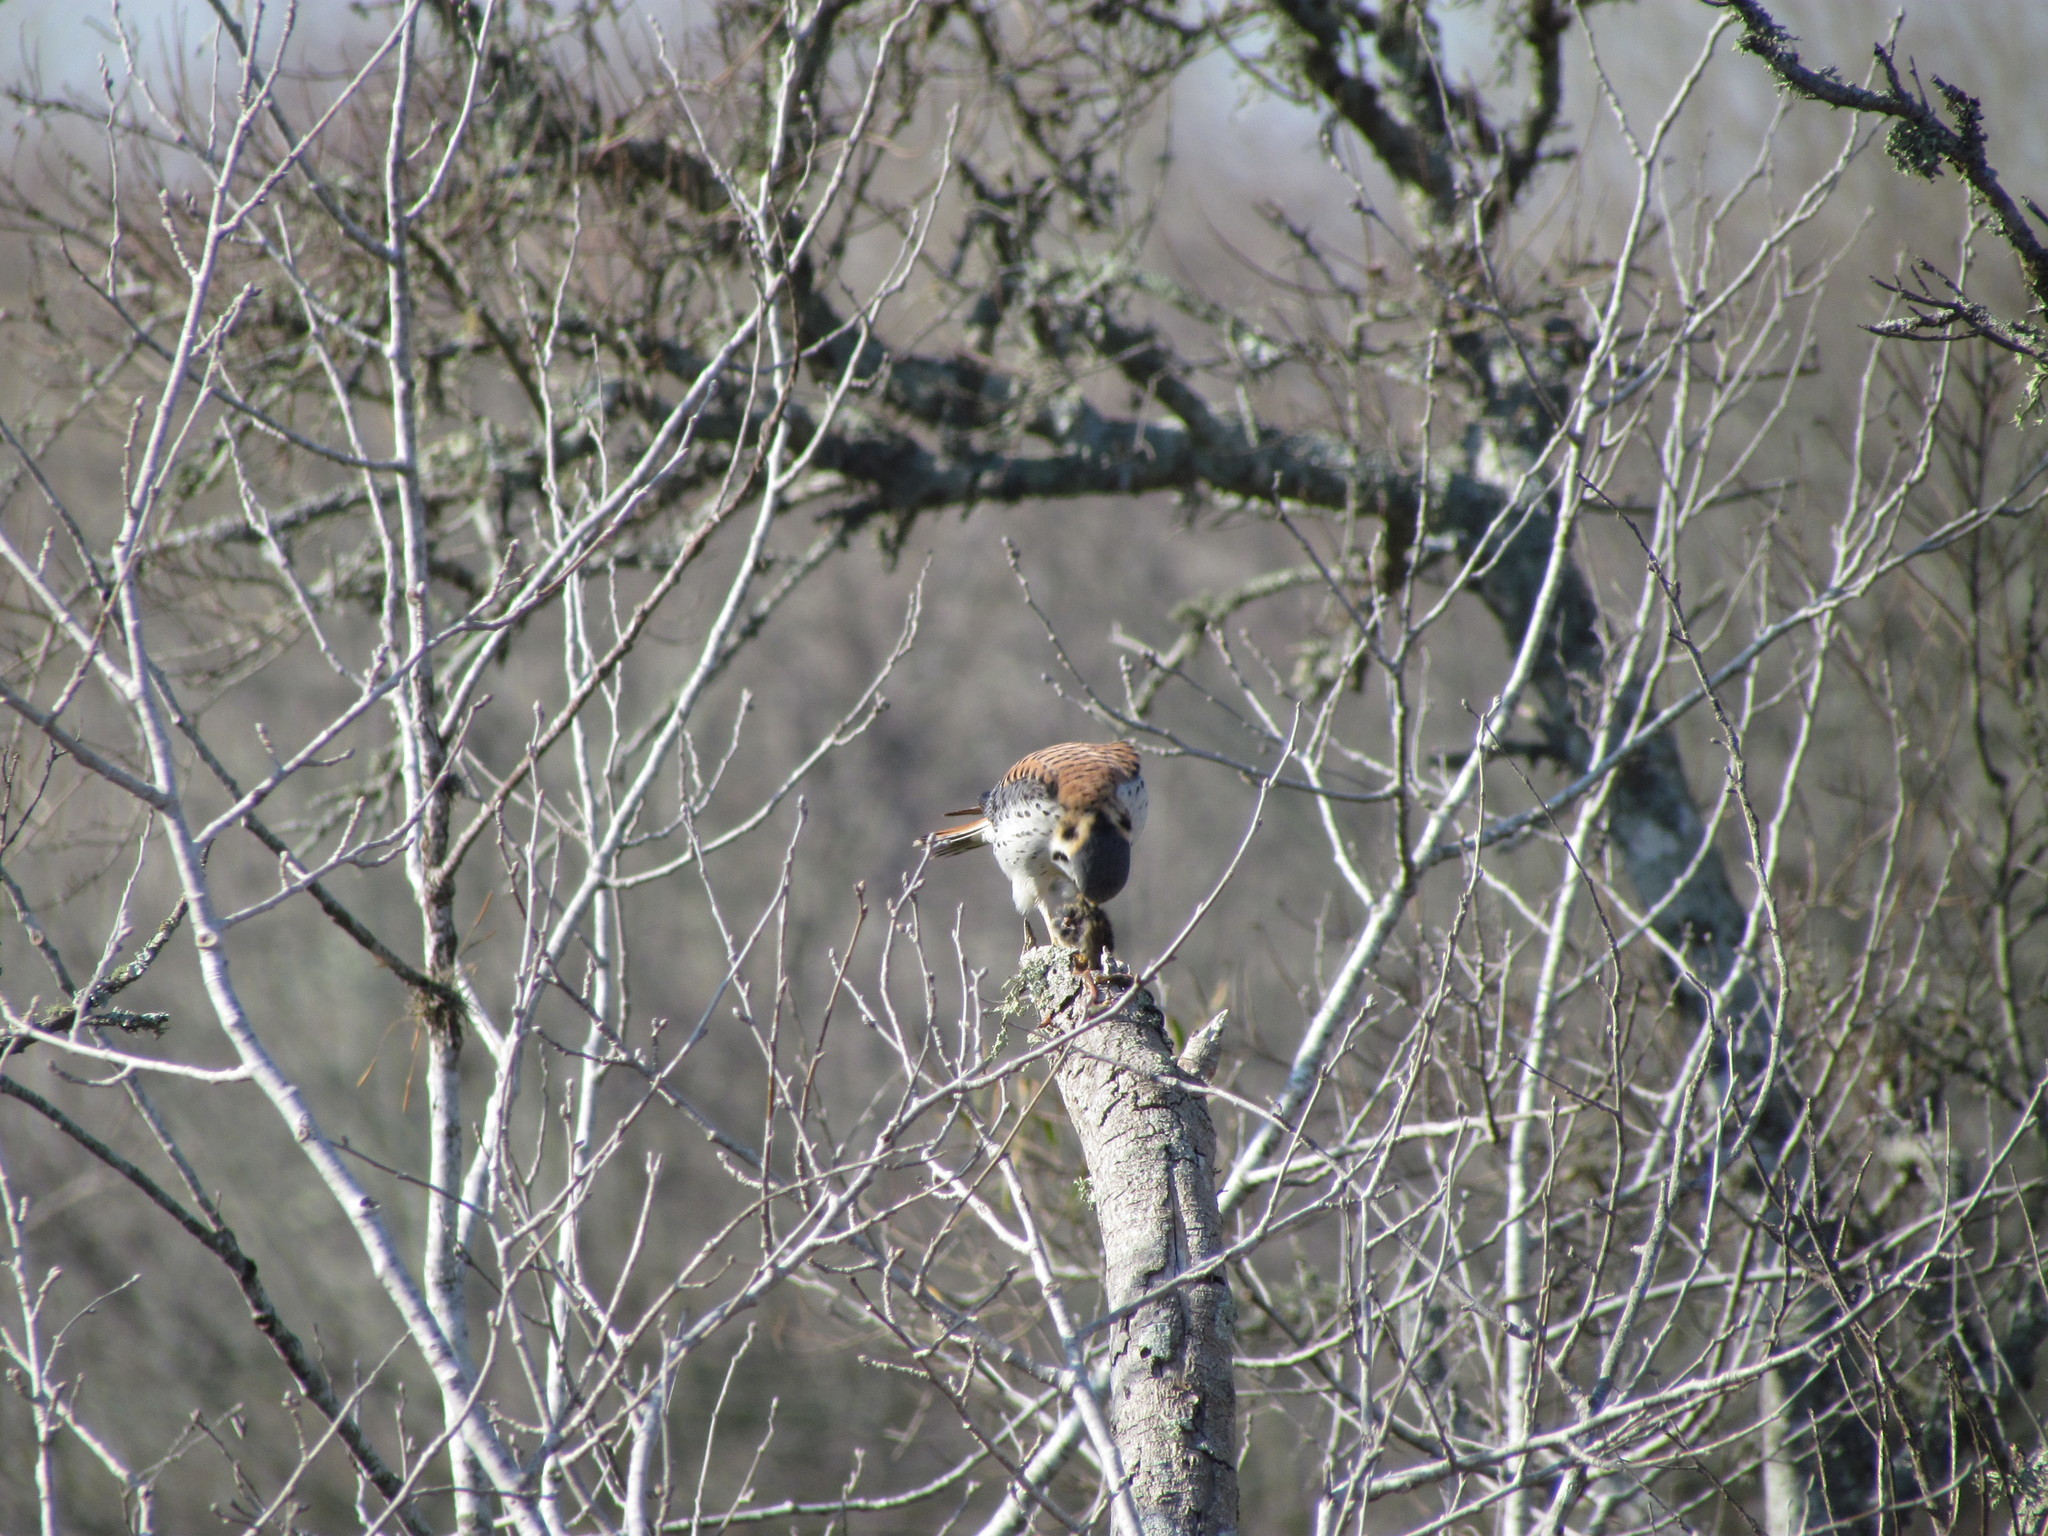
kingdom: Animalia
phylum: Chordata
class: Aves
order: Falconiformes
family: Falconidae
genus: Falco
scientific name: Falco sparverius
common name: American kestrel
